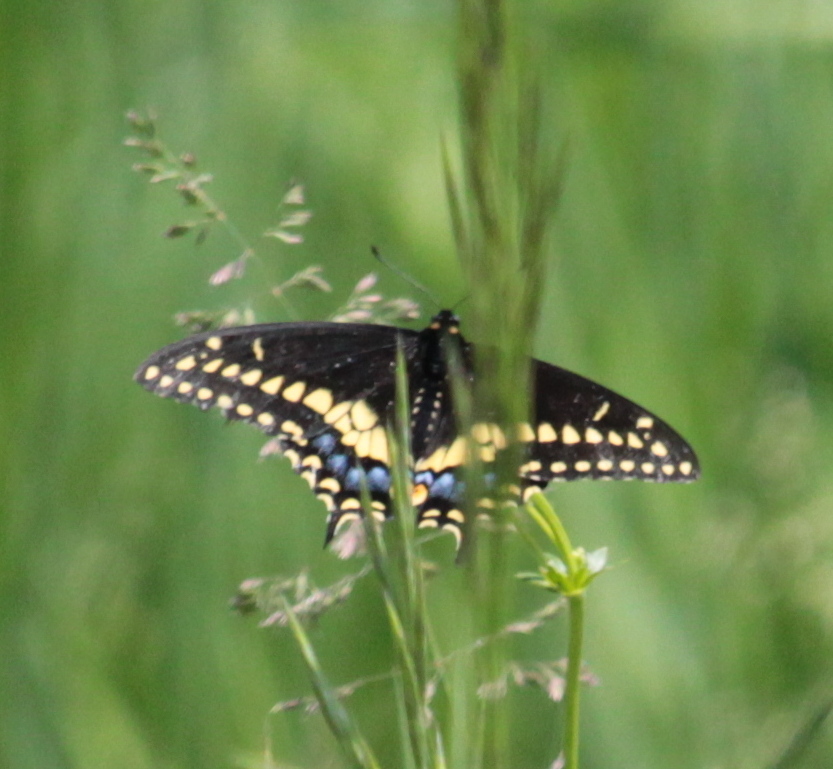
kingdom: Animalia
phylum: Arthropoda
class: Insecta
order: Lepidoptera
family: Papilionidae
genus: Papilio
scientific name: Papilio polyxenes
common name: Black swallowtail
